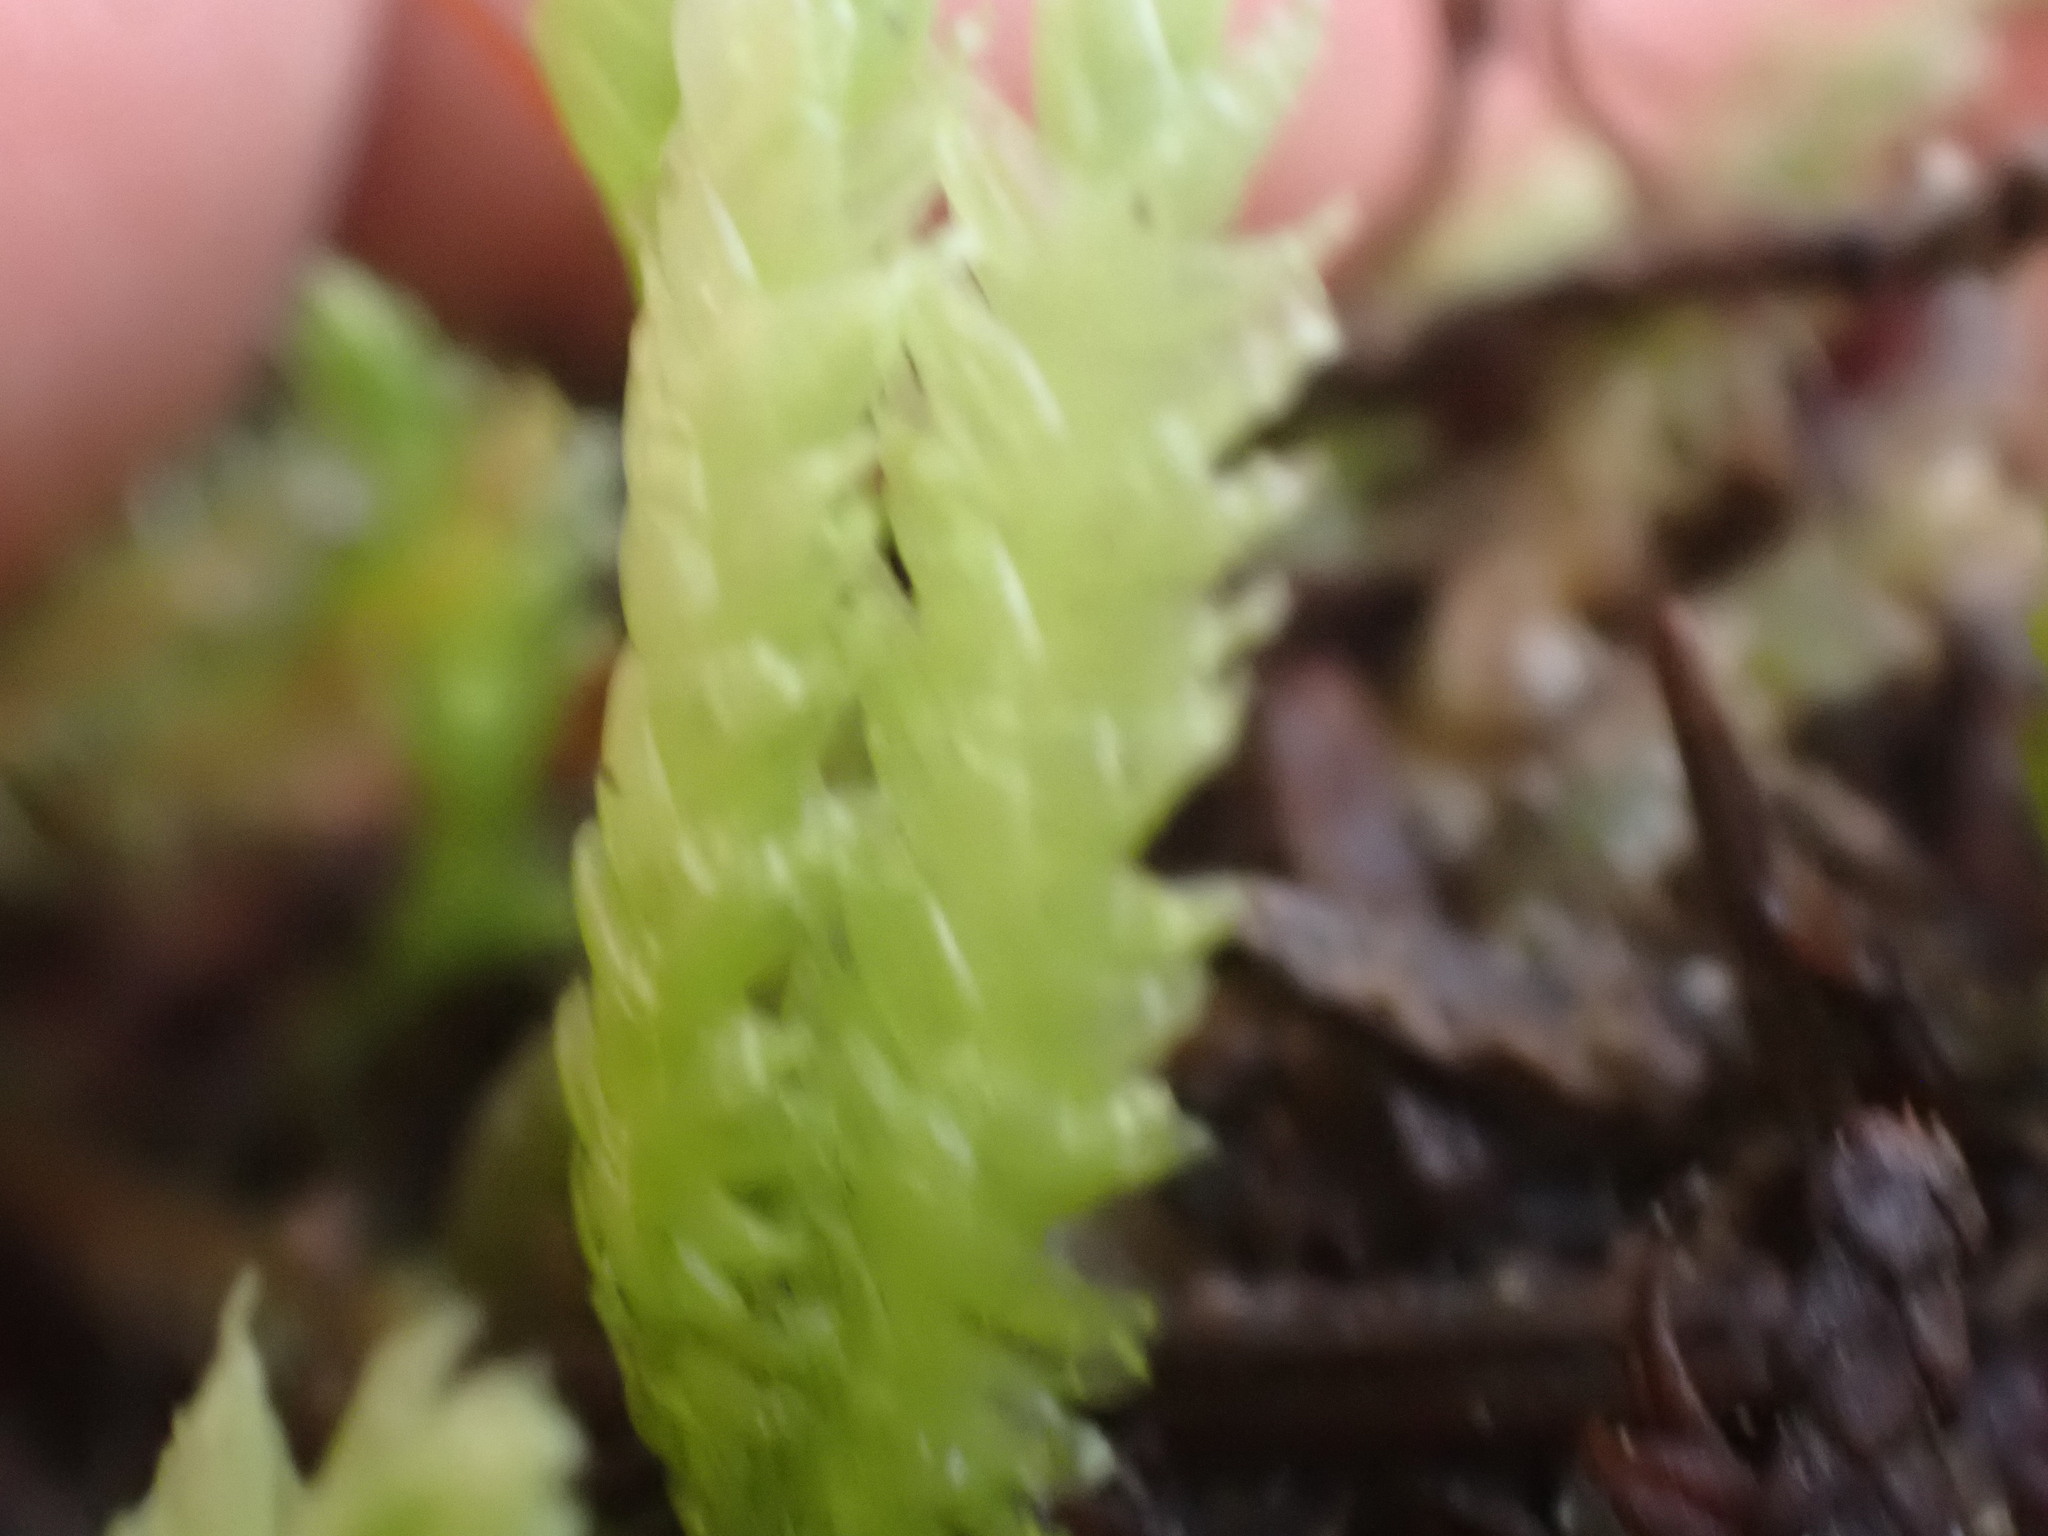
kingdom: Plantae
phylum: Bryophyta
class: Bryopsida
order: Hypnales
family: Plagiotheciaceae
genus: Plagiothecium
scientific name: Plagiothecium undulatum
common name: Waved silk-moss
